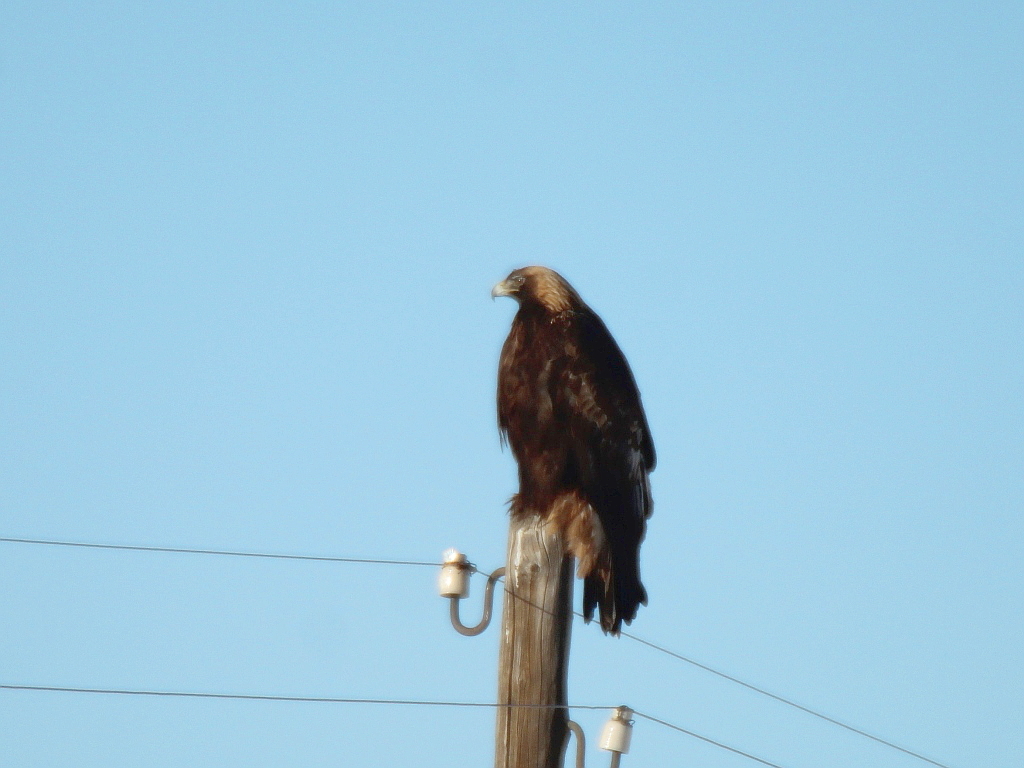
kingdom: Animalia
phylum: Chordata
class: Aves
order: Accipitriformes
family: Accipitridae
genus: Aquila
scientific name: Aquila chrysaetos
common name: Golden eagle
